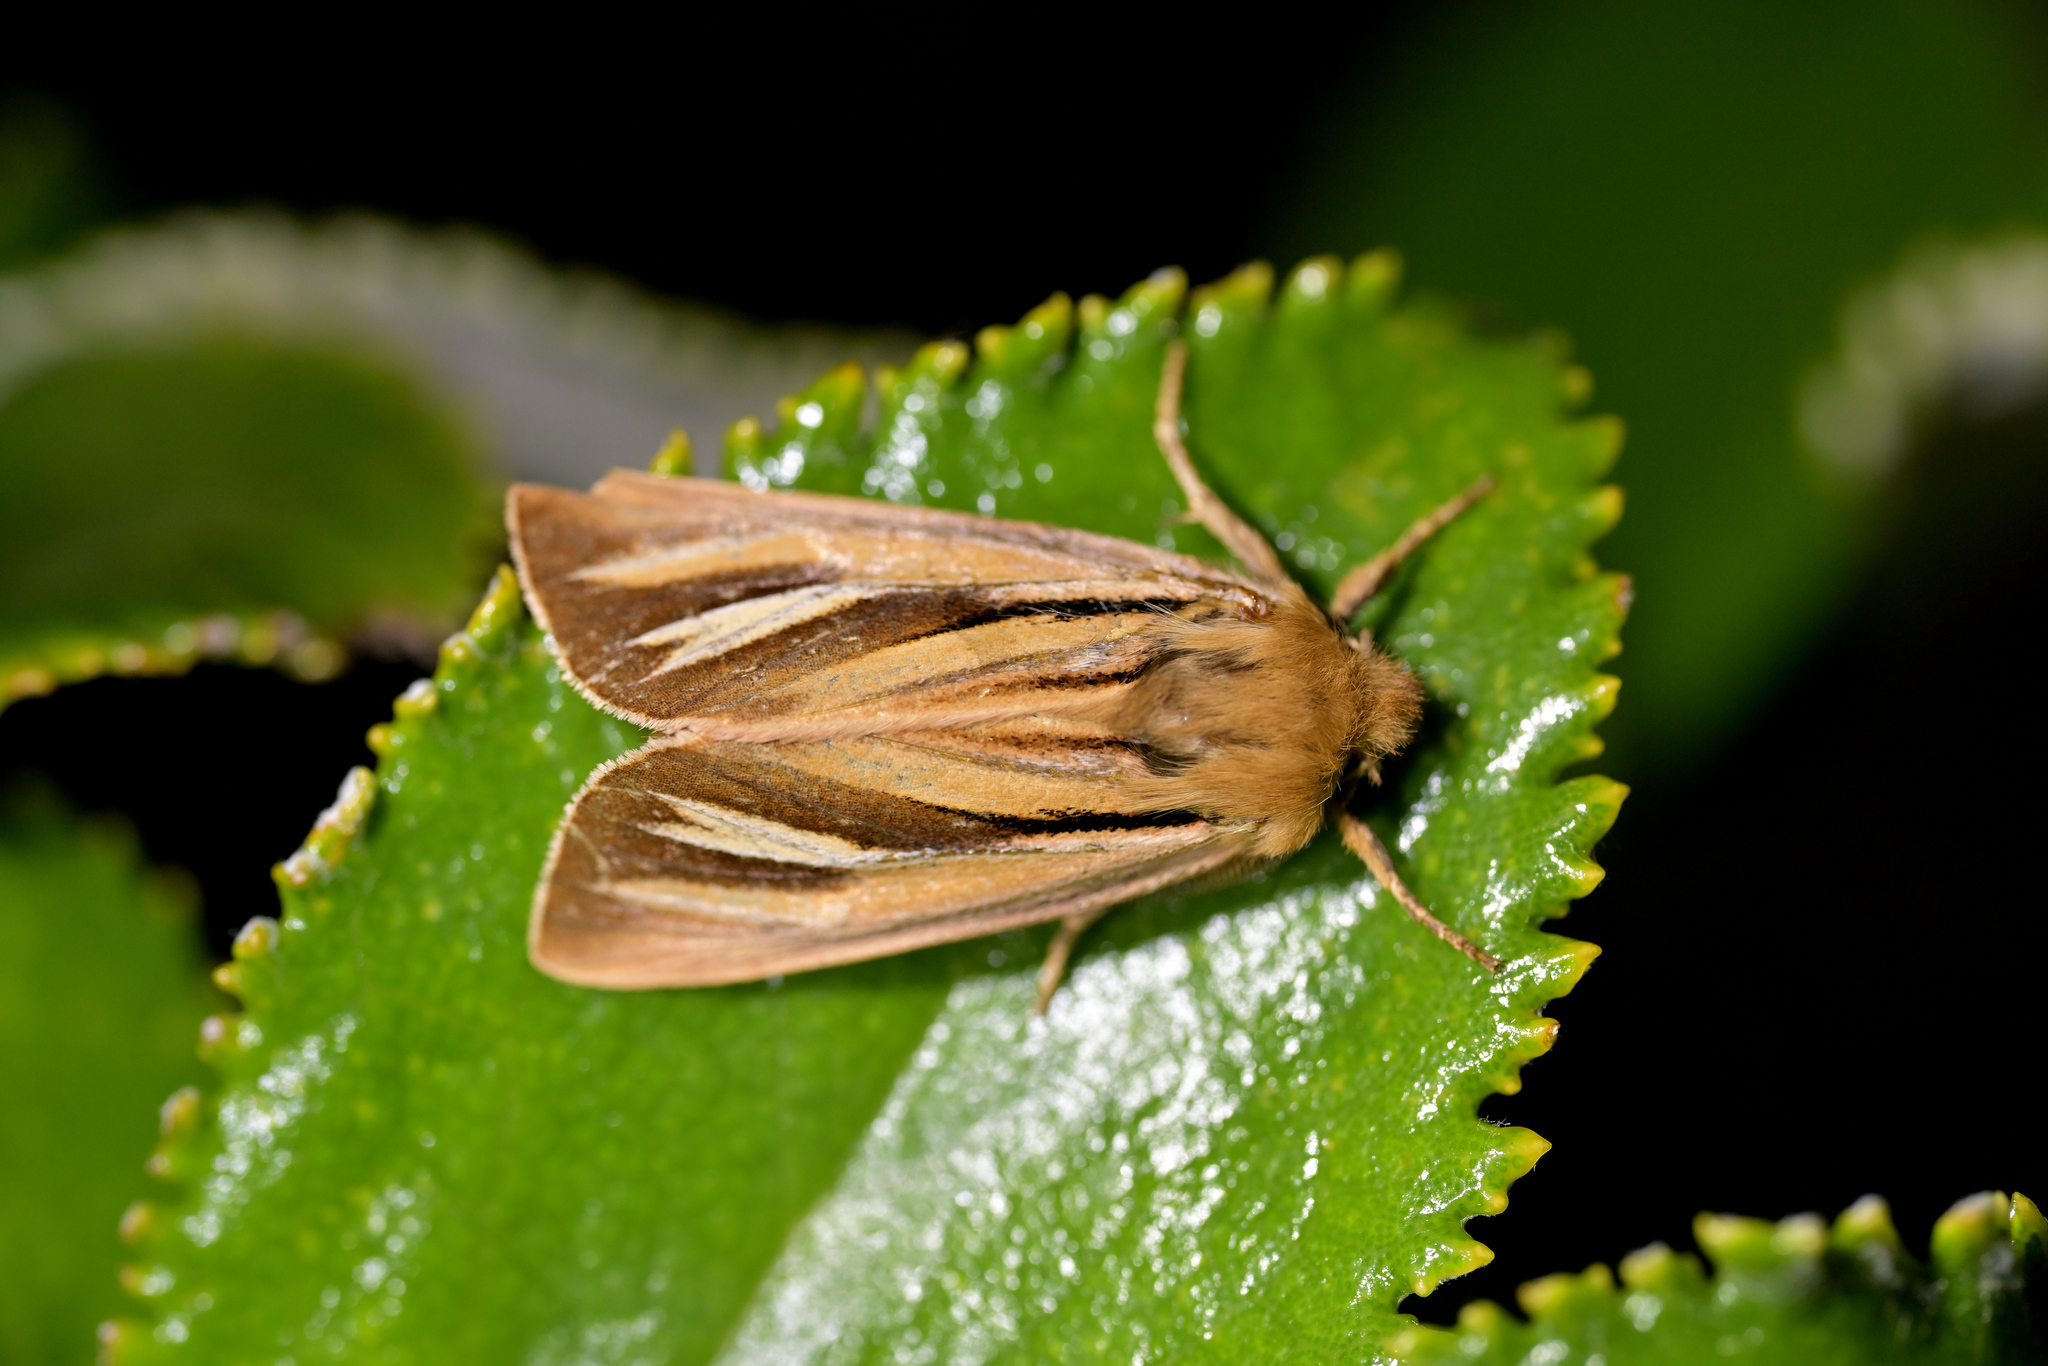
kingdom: Animalia
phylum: Arthropoda
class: Insecta
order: Lepidoptera
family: Noctuidae
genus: Ichneutica
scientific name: Ichneutica caraunias
